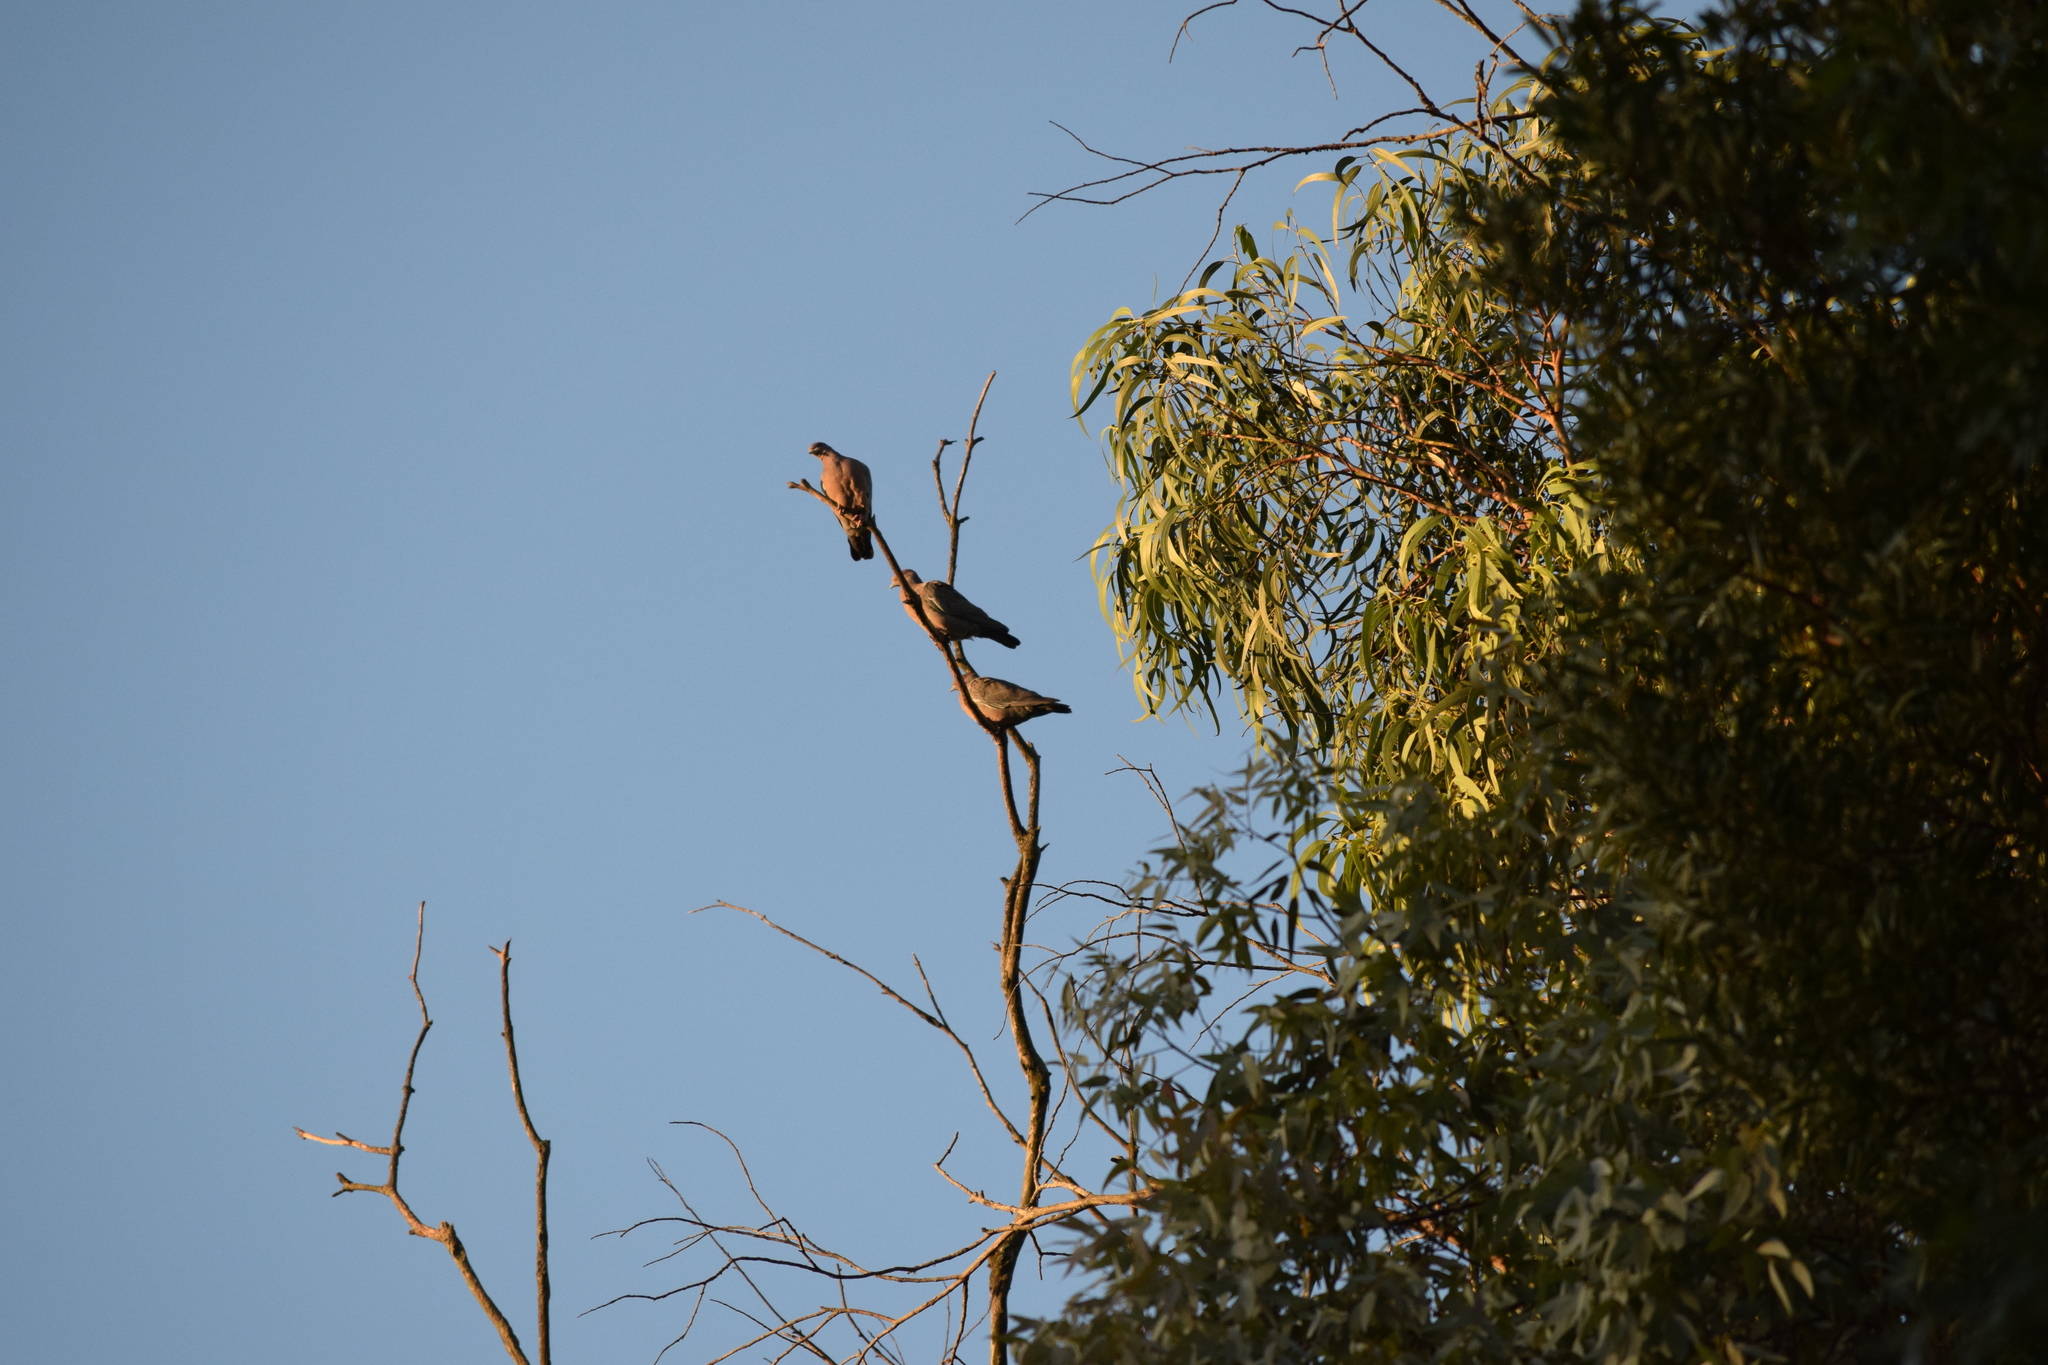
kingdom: Animalia
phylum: Chordata
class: Aves
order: Columbiformes
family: Columbidae
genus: Patagioenas
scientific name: Patagioenas picazuro
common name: Picazuro pigeon
